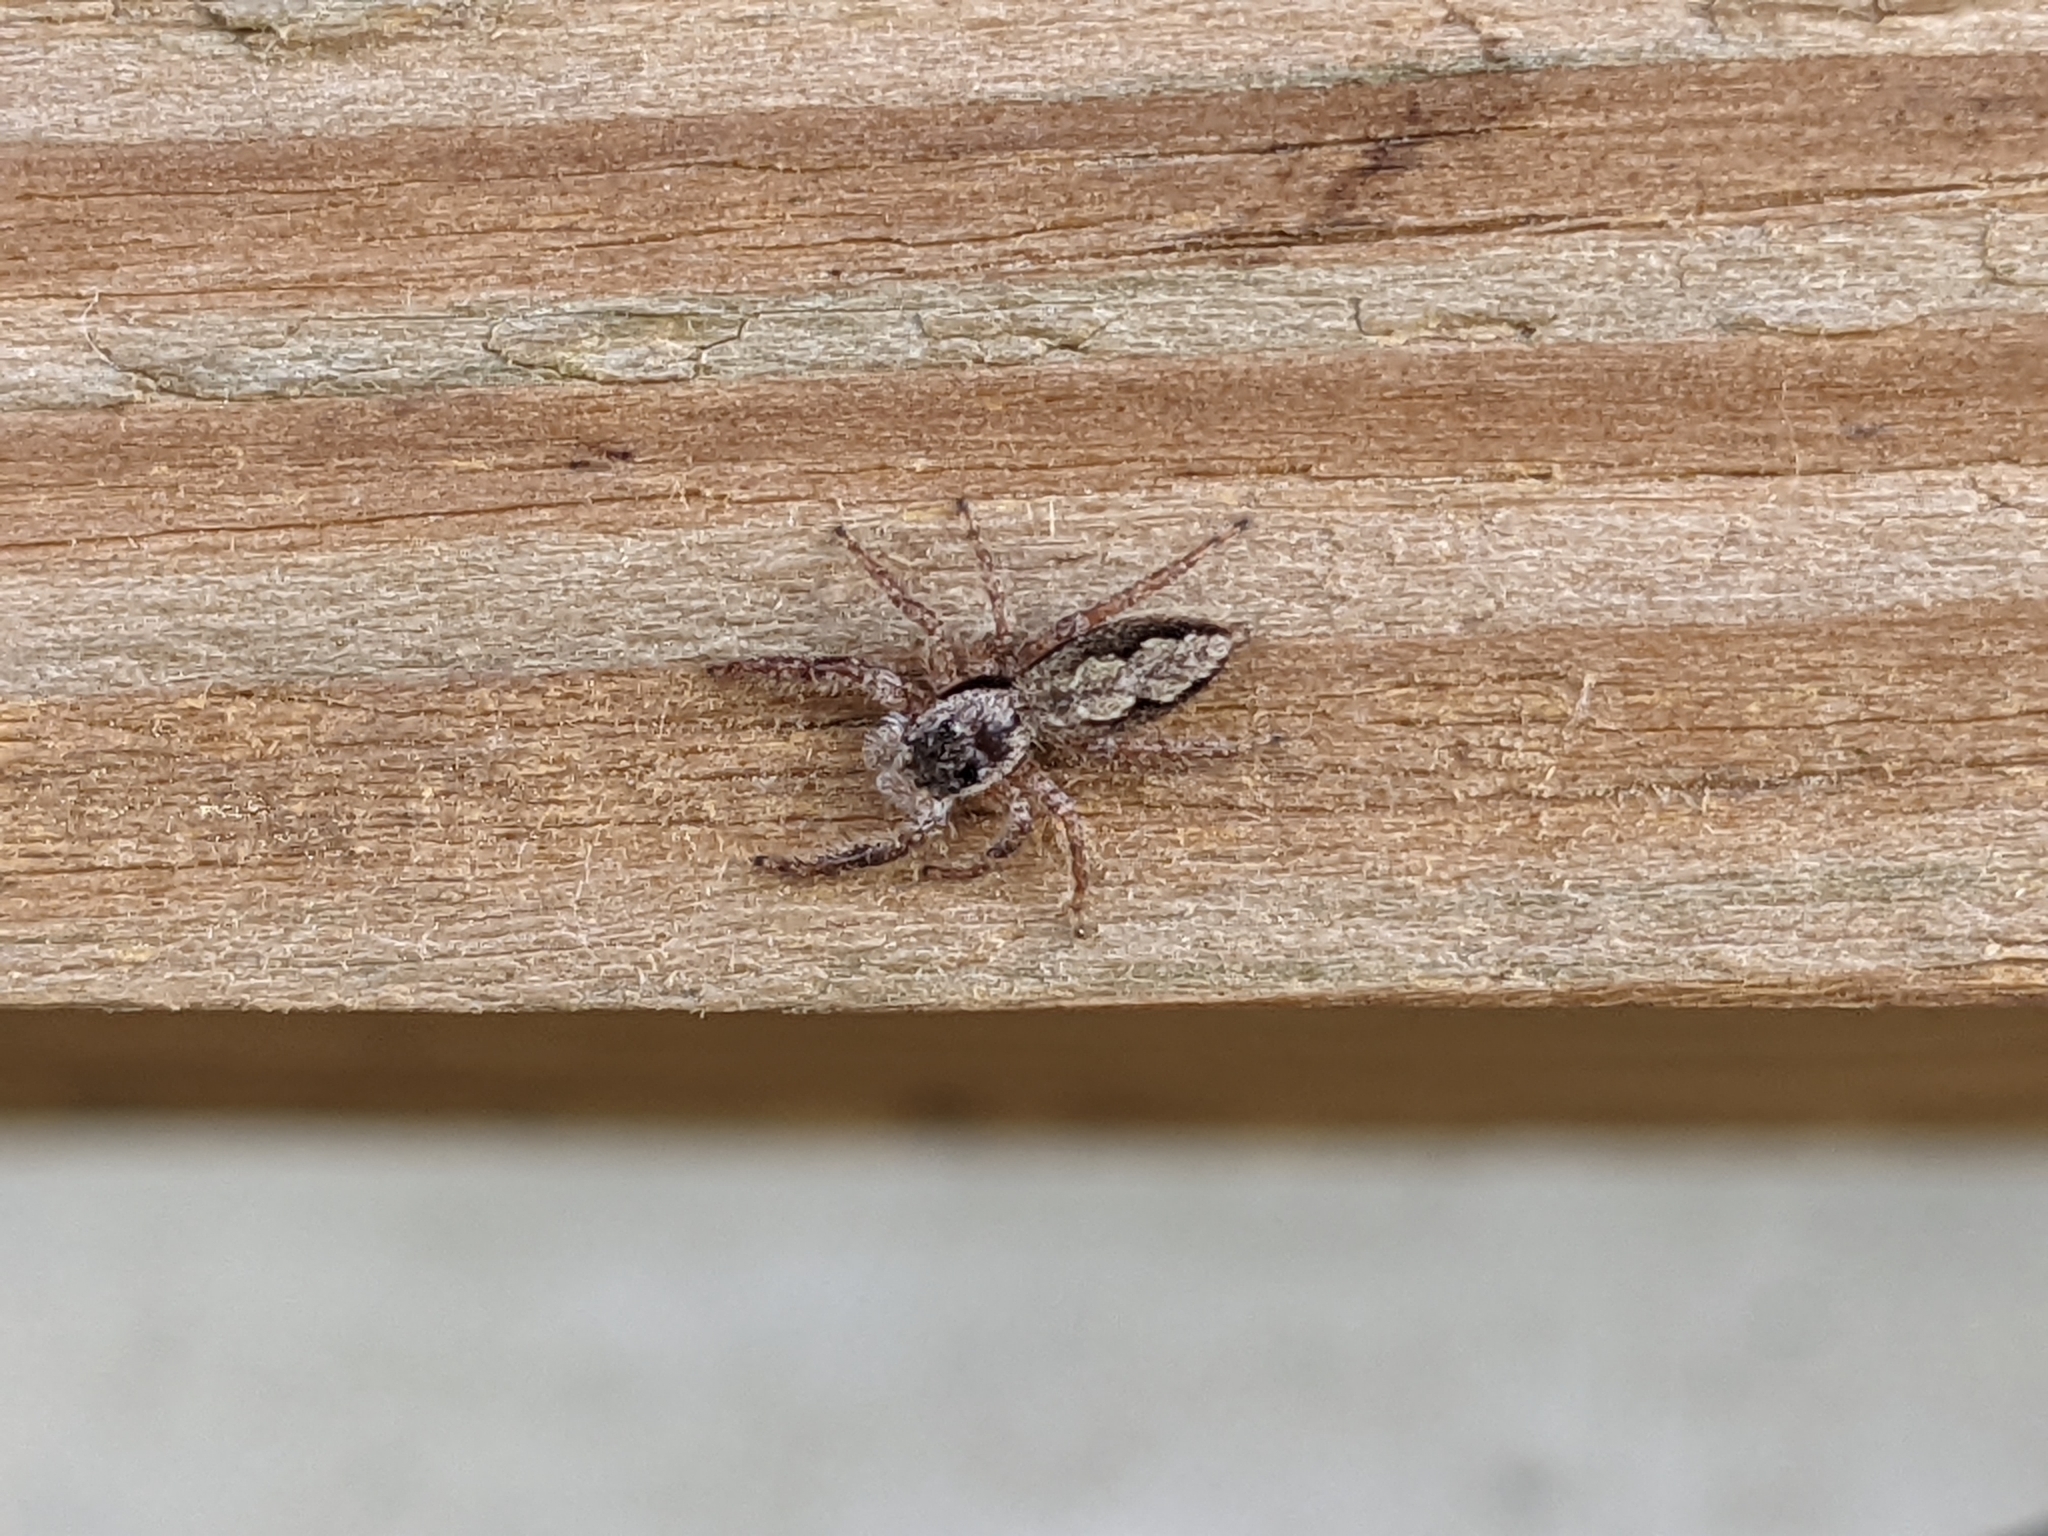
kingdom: Animalia
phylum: Arthropoda
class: Arachnida
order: Araneae
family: Salticidae
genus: Platycryptus
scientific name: Platycryptus undatus
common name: Tan jumping spider
